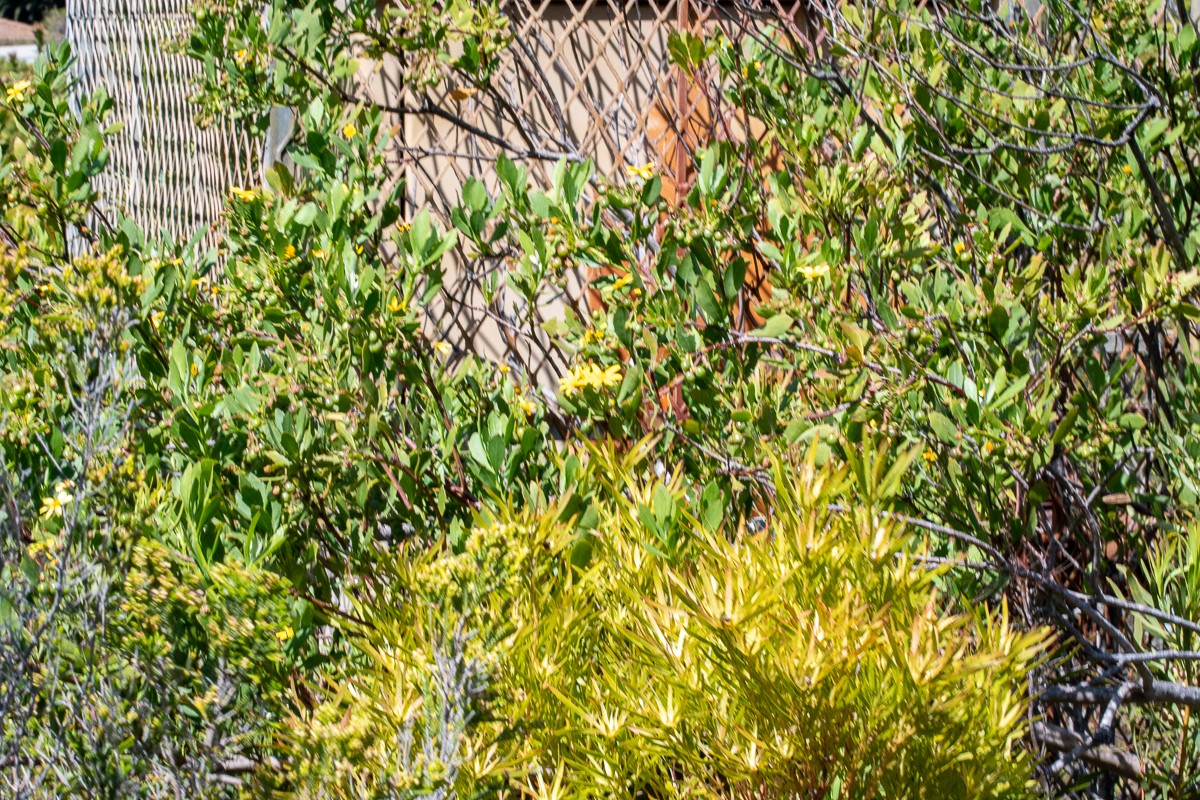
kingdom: Plantae
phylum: Tracheophyta
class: Magnoliopsida
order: Asterales
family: Asteraceae
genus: Osteospermum
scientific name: Osteospermum moniliferum
